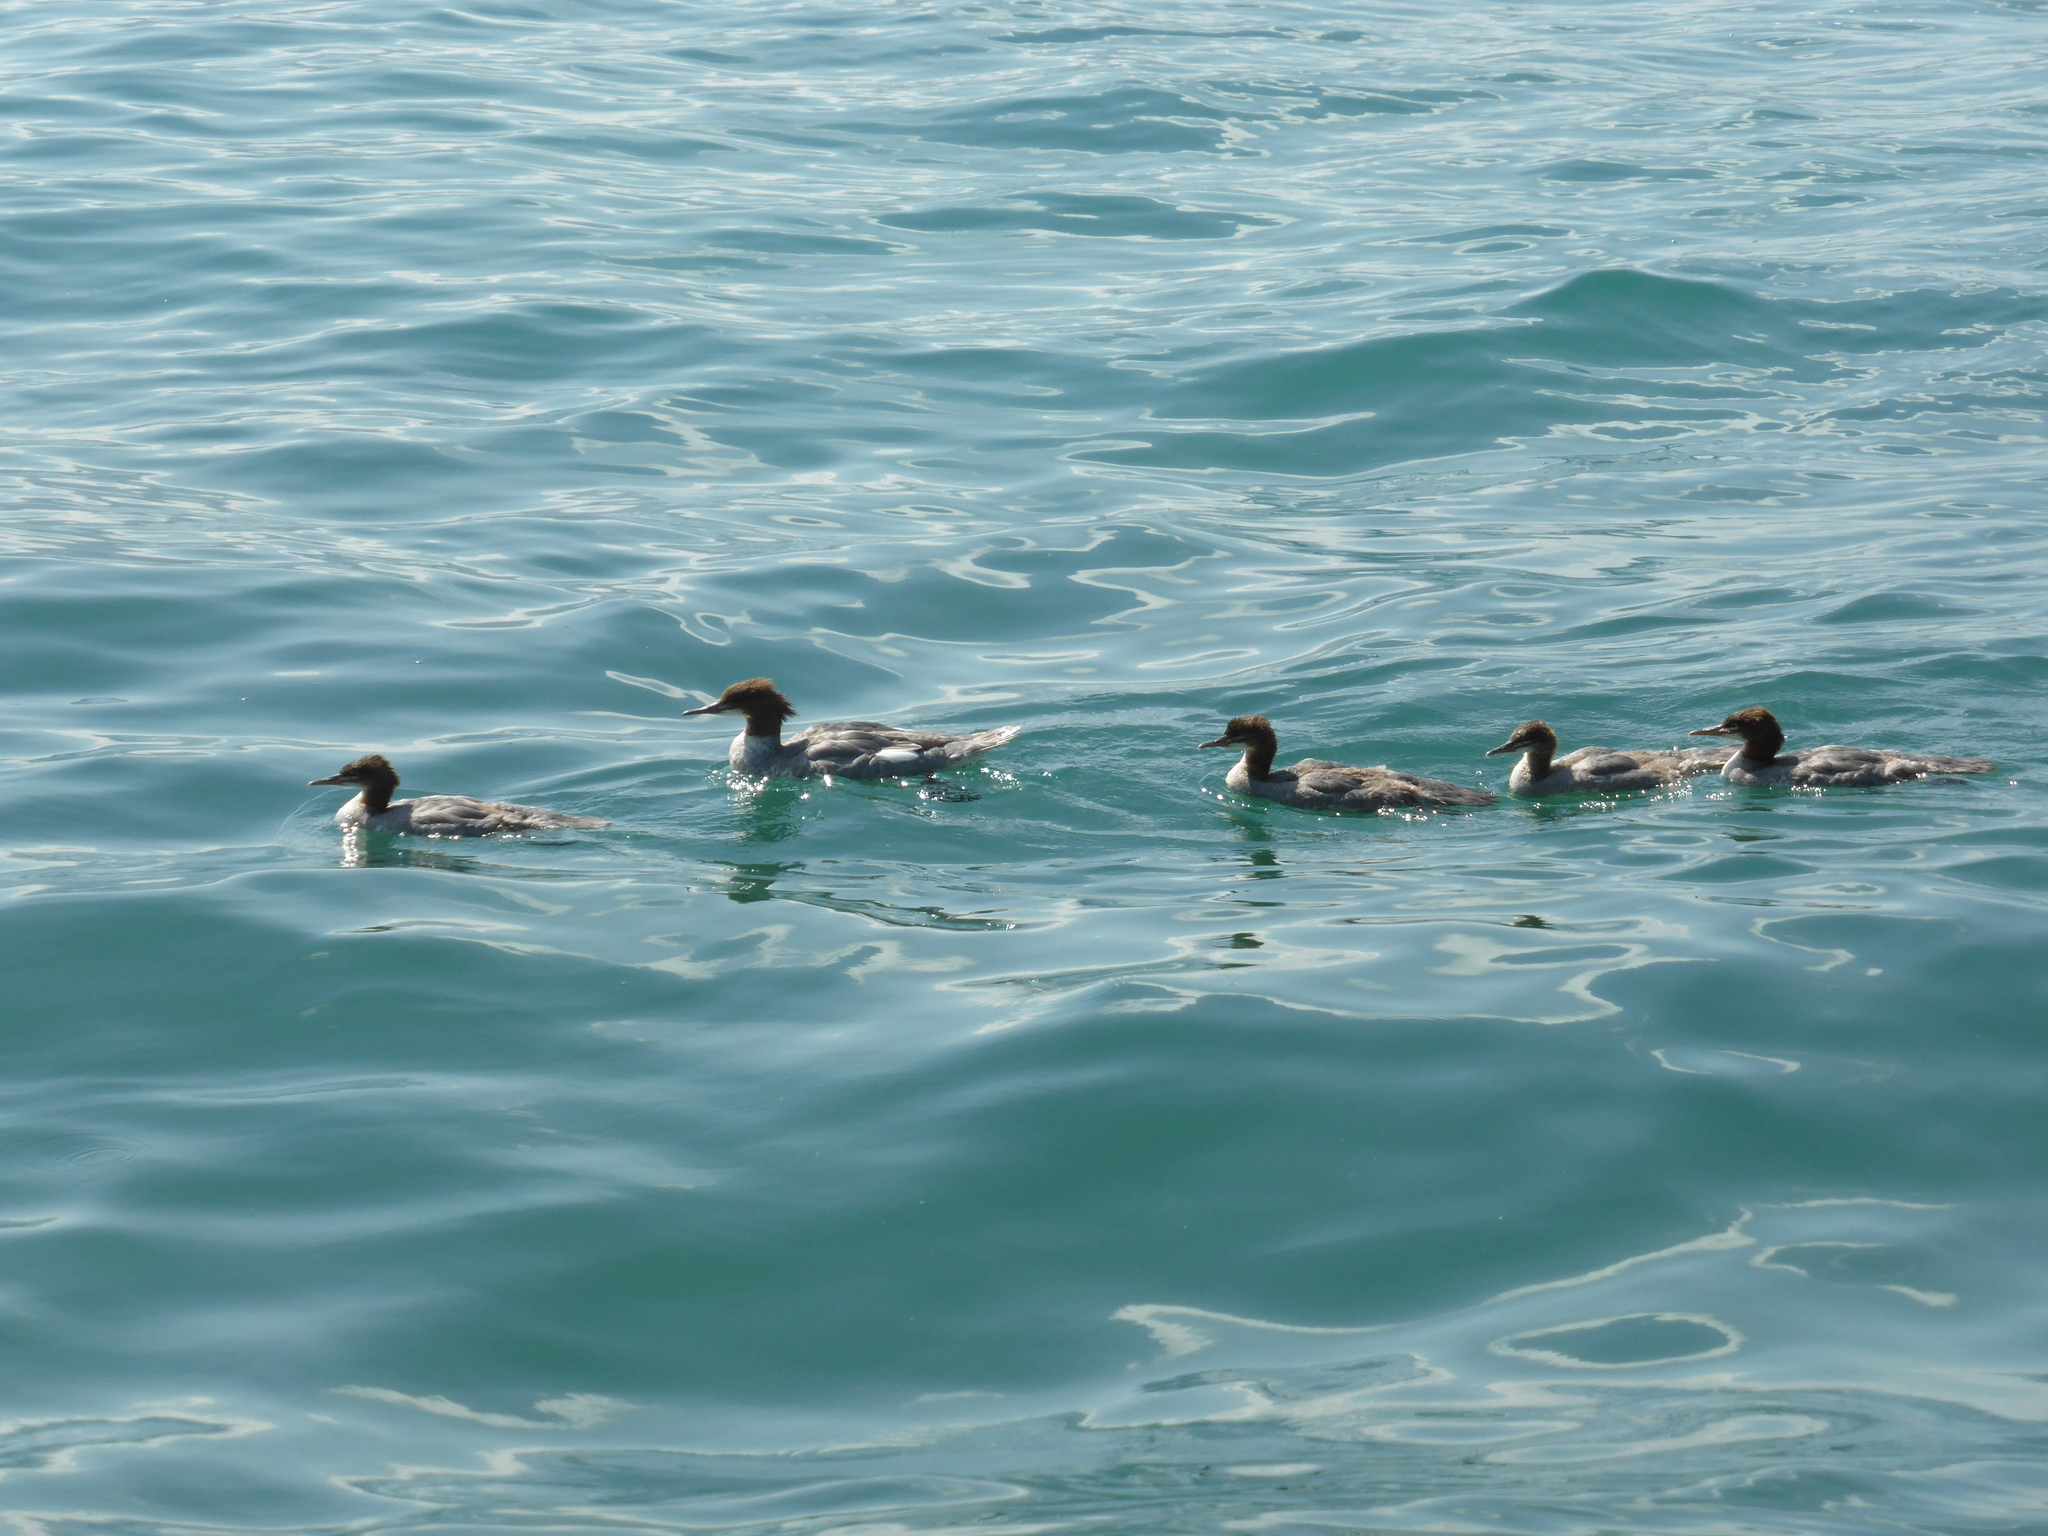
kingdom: Animalia
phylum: Chordata
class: Aves
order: Anseriformes
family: Anatidae
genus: Mergus
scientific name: Mergus merganser
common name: Common merganser
